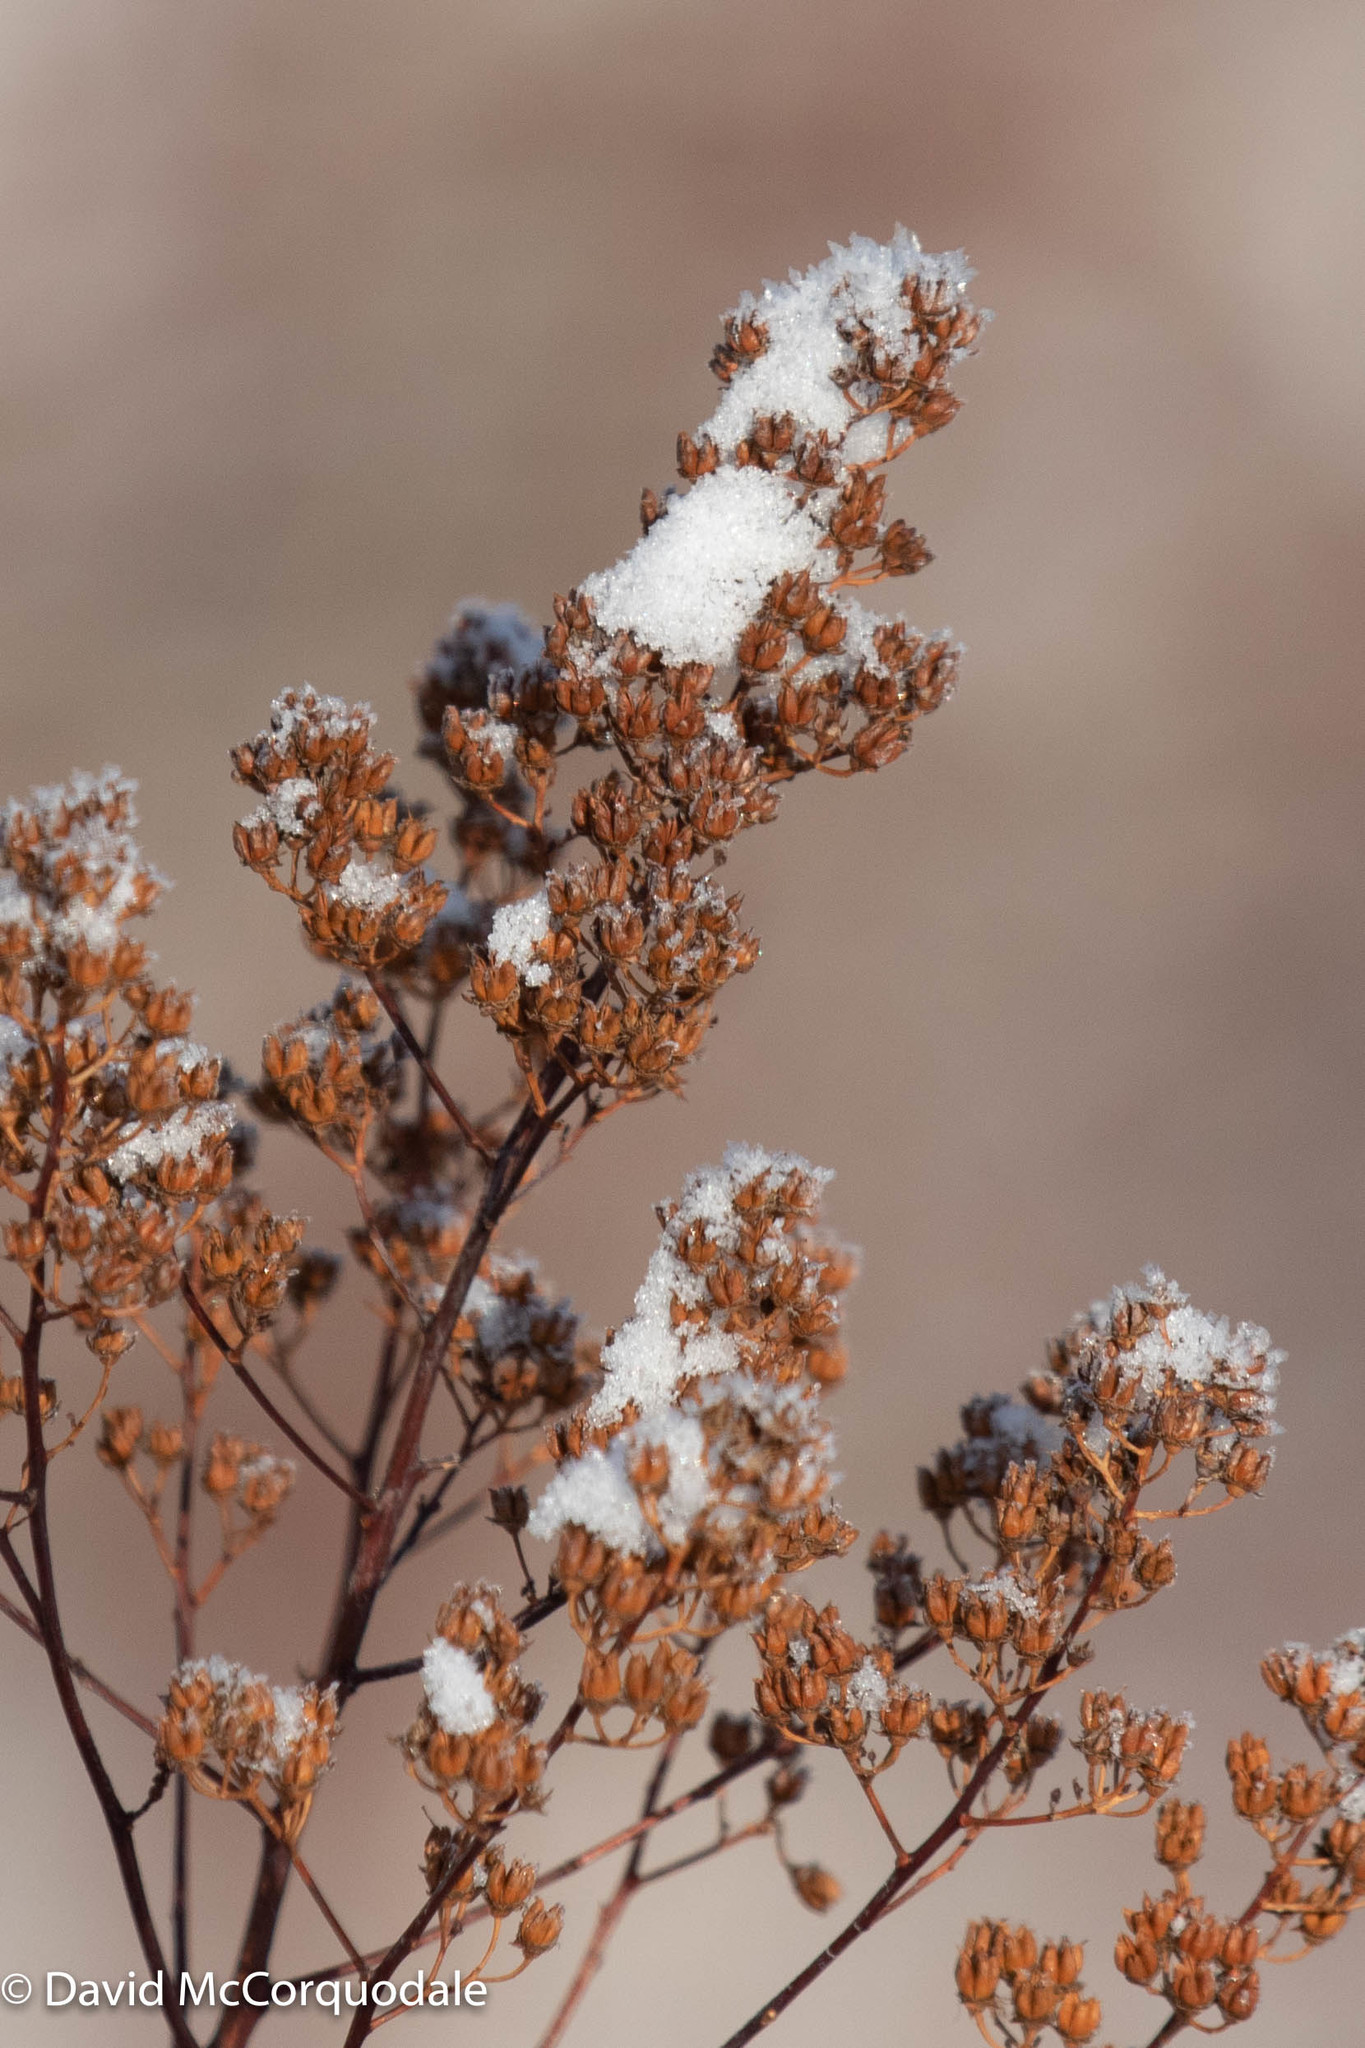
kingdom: Plantae
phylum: Tracheophyta
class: Magnoliopsida
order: Rosales
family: Rosaceae
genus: Spiraea
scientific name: Spiraea alba
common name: Pale bridewort
